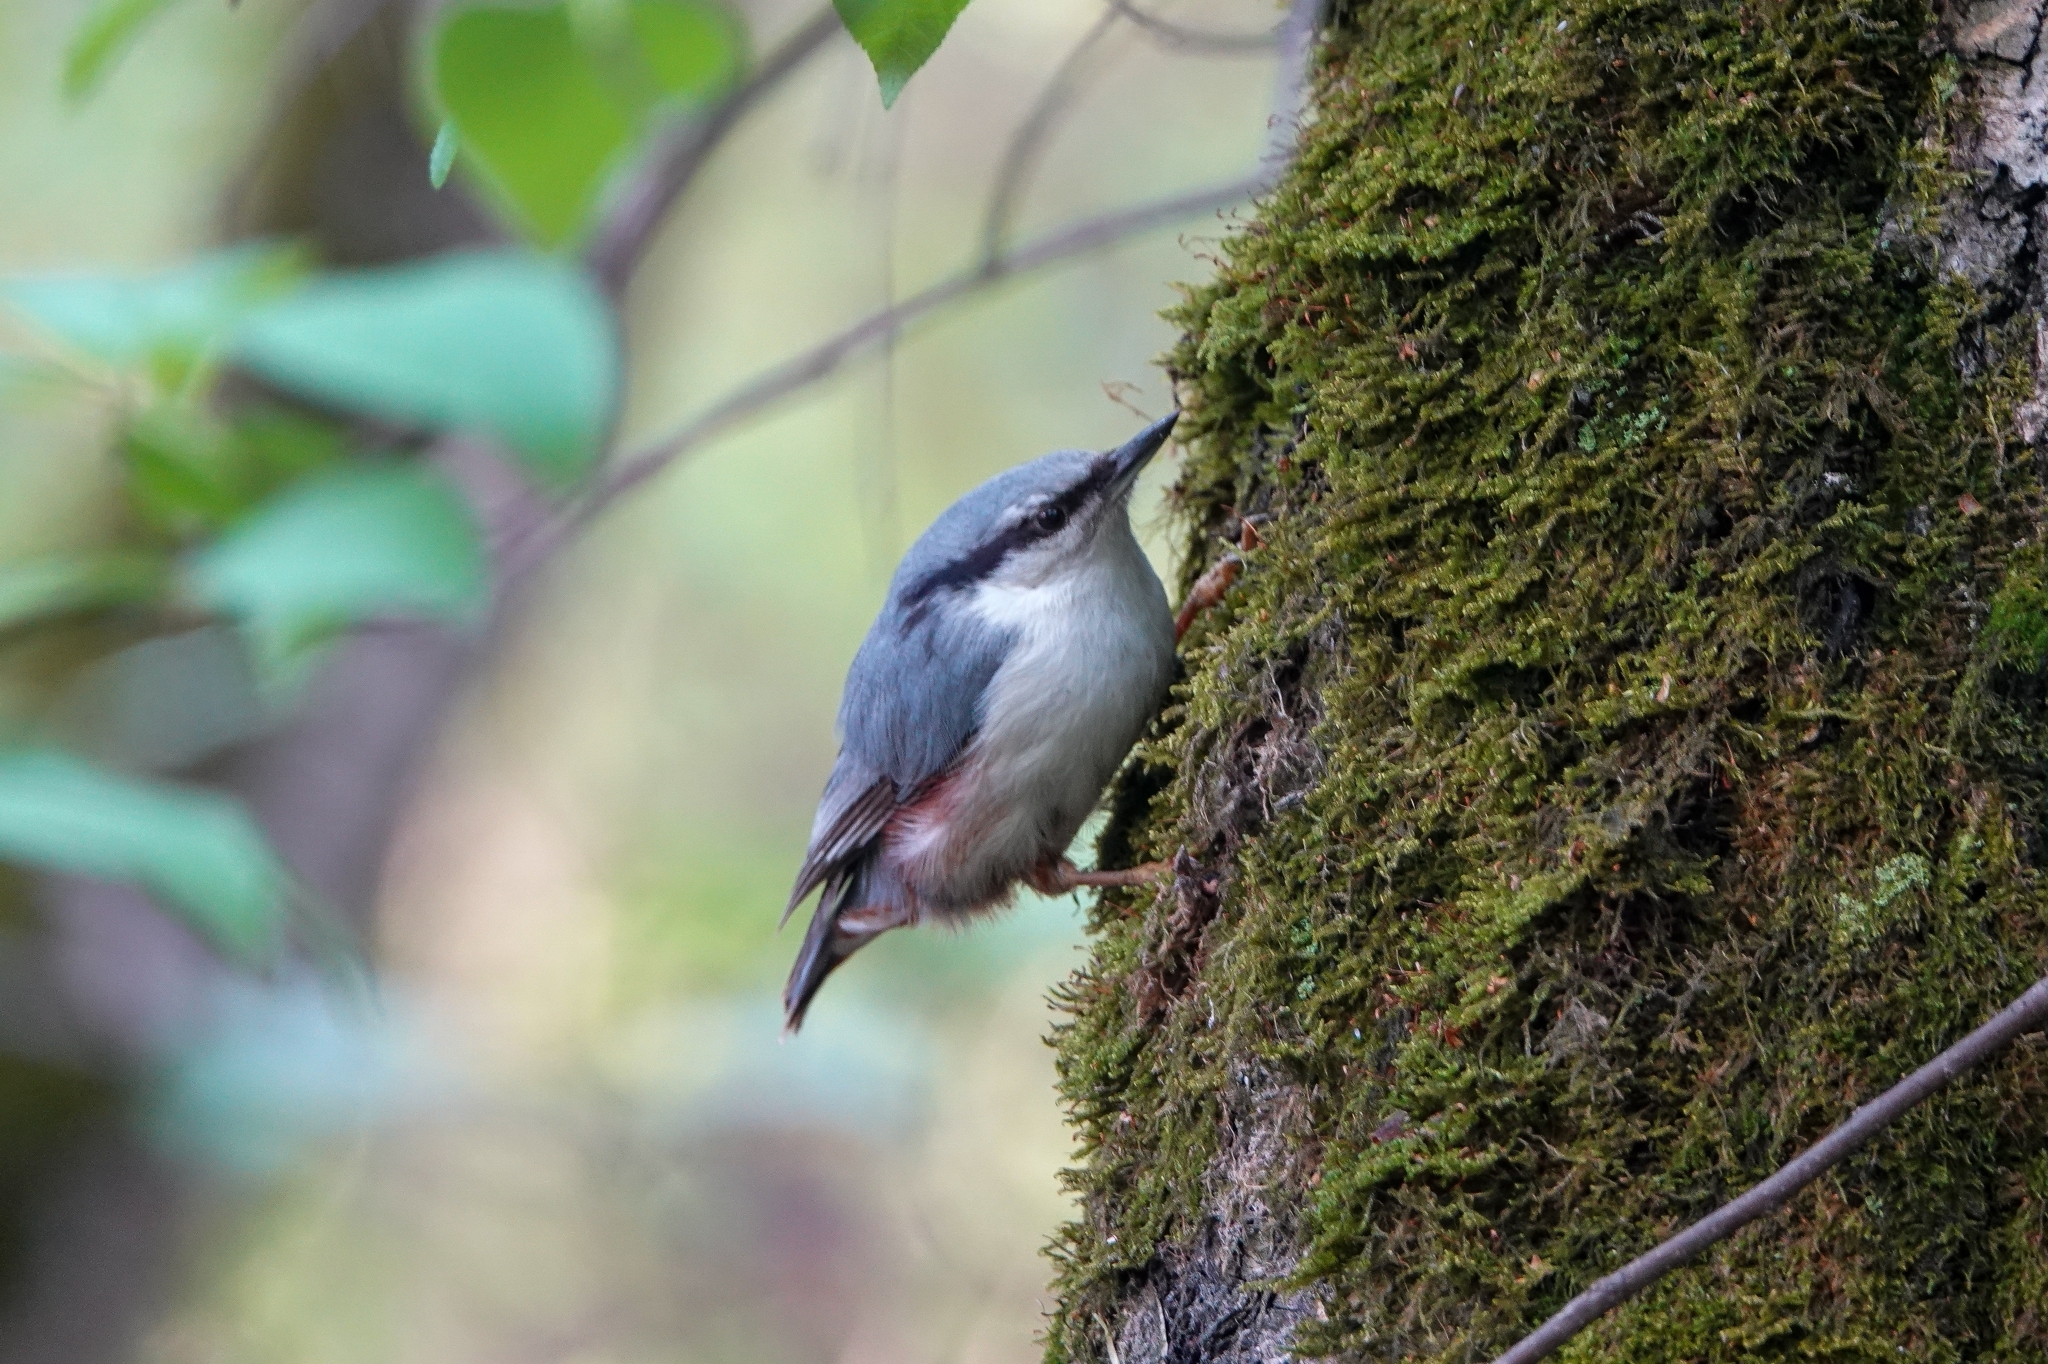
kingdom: Animalia
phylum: Chordata
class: Aves
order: Passeriformes
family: Sittidae
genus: Sitta
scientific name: Sitta europaea
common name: Eurasian nuthatch
